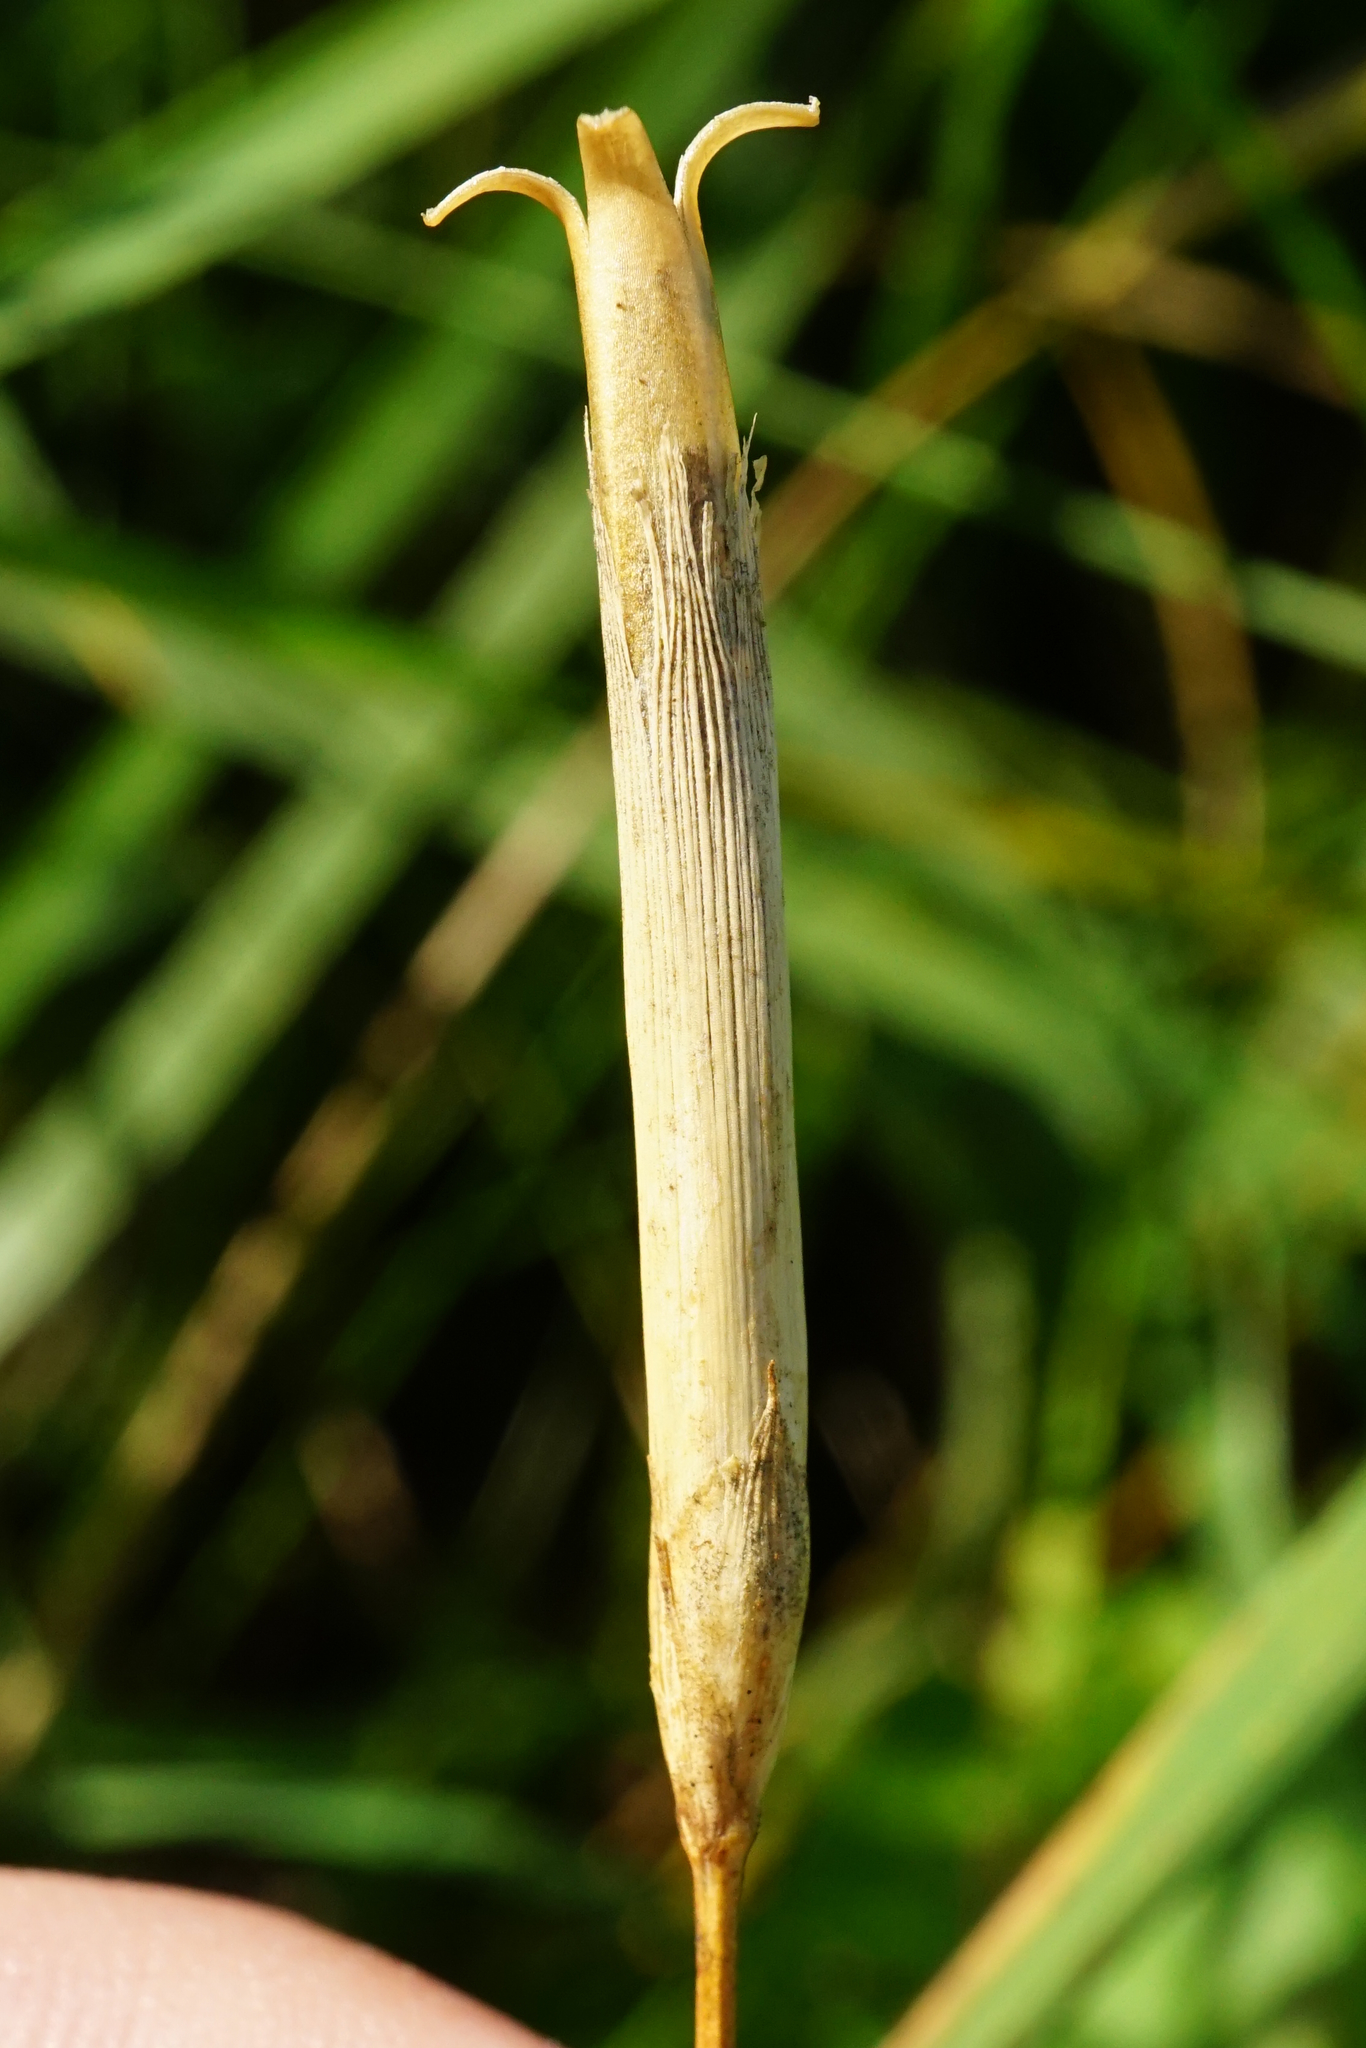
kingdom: Plantae
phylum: Tracheophyta
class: Magnoliopsida
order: Caryophyllales
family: Caryophyllaceae
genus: Dianthus
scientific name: Dianthus superbus
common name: Fringed pink
